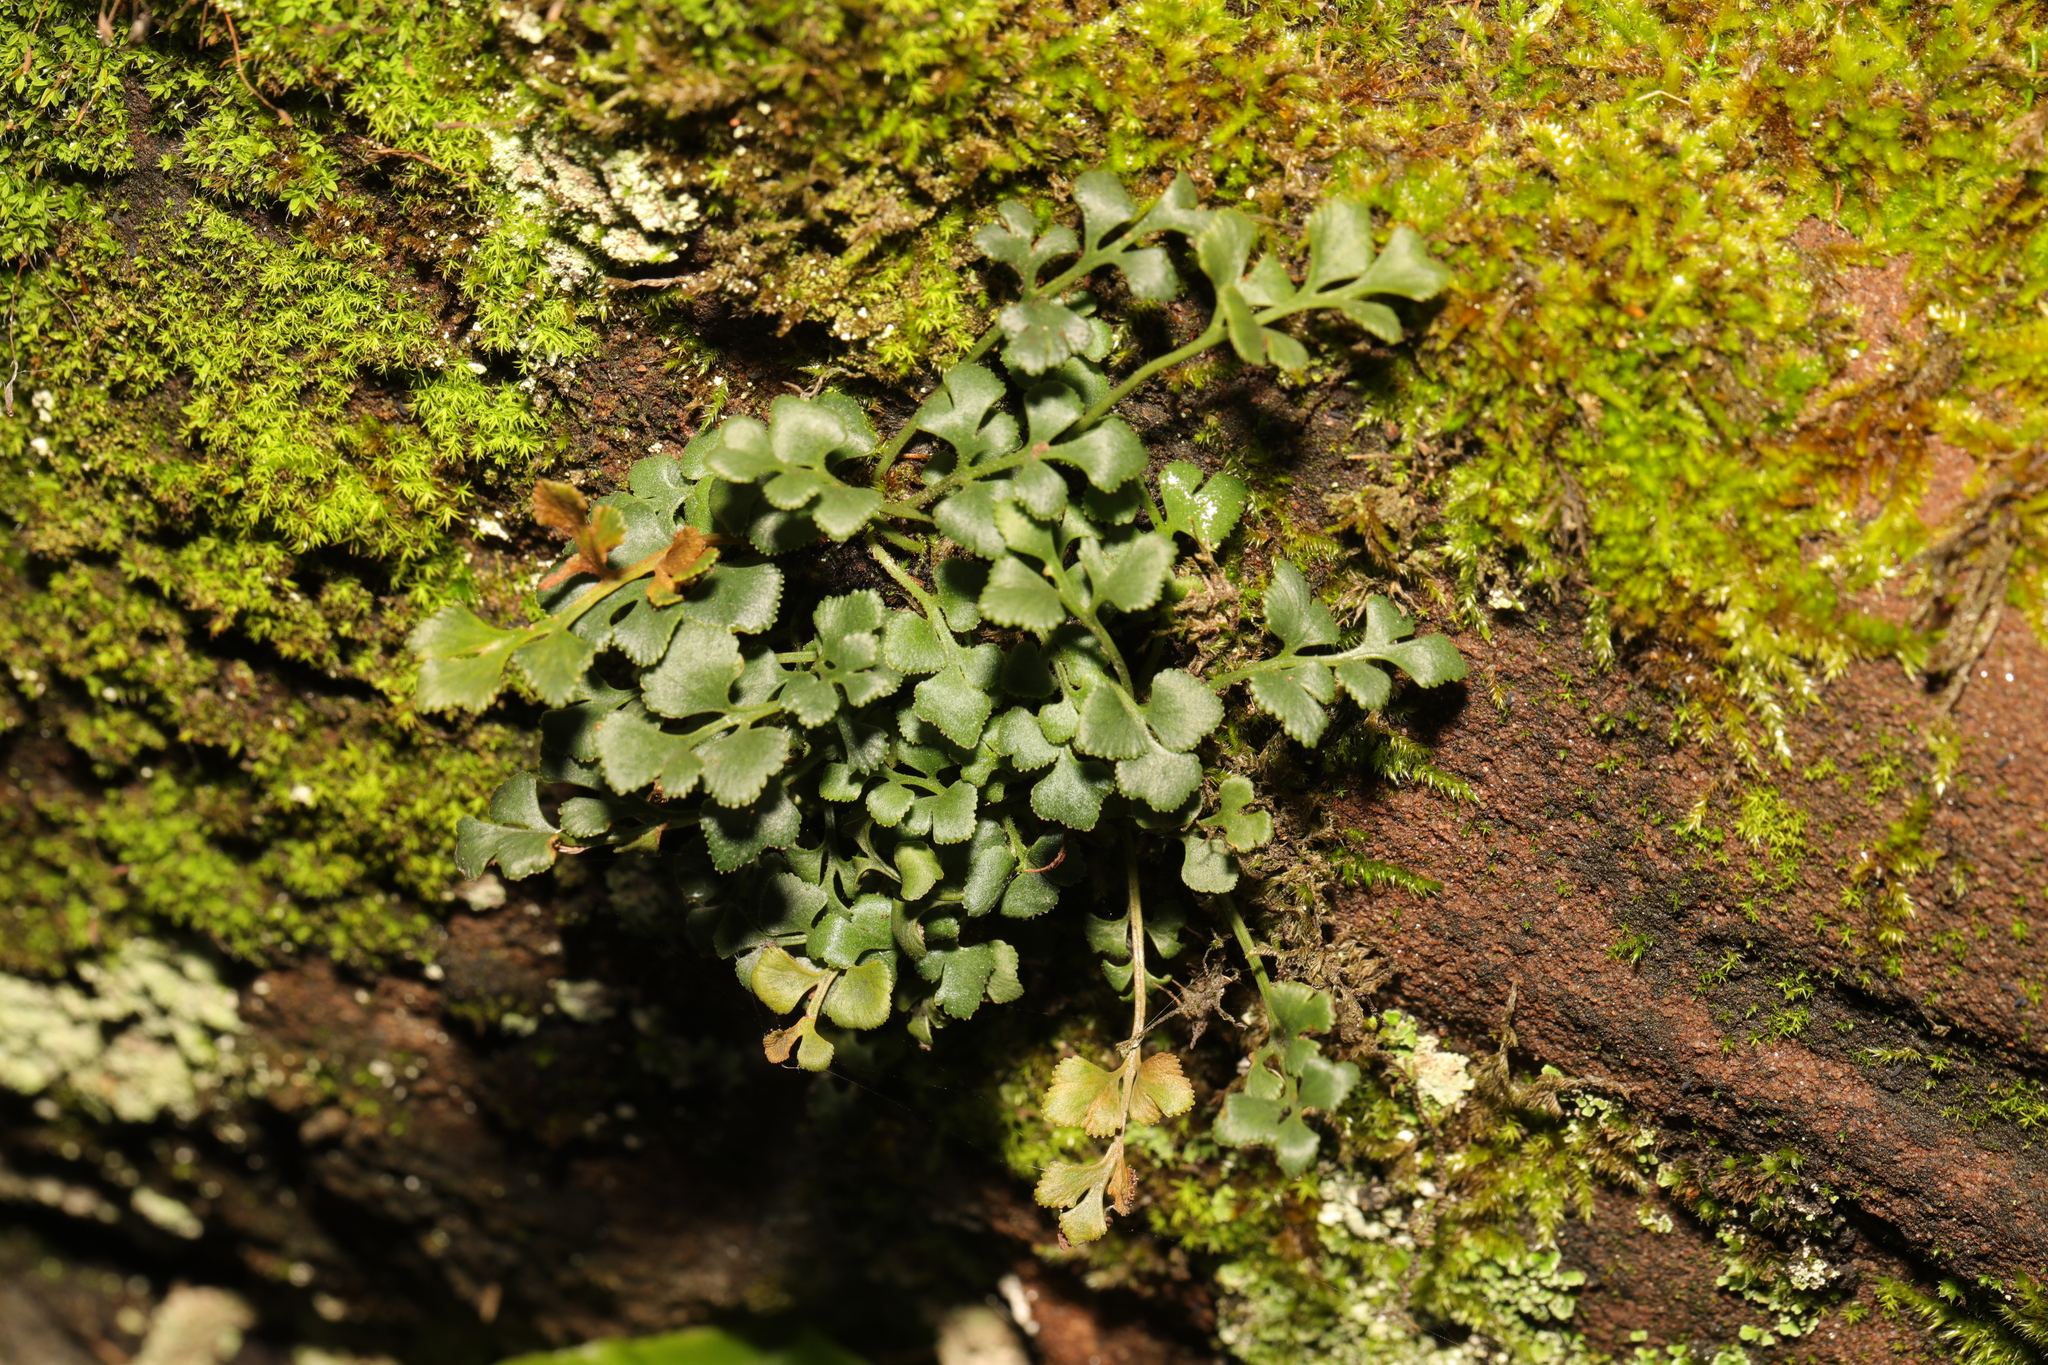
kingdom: Plantae
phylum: Tracheophyta
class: Polypodiopsida
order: Polypodiales
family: Aspleniaceae
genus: Asplenium
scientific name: Asplenium ruta-muraria
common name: Wall-rue
